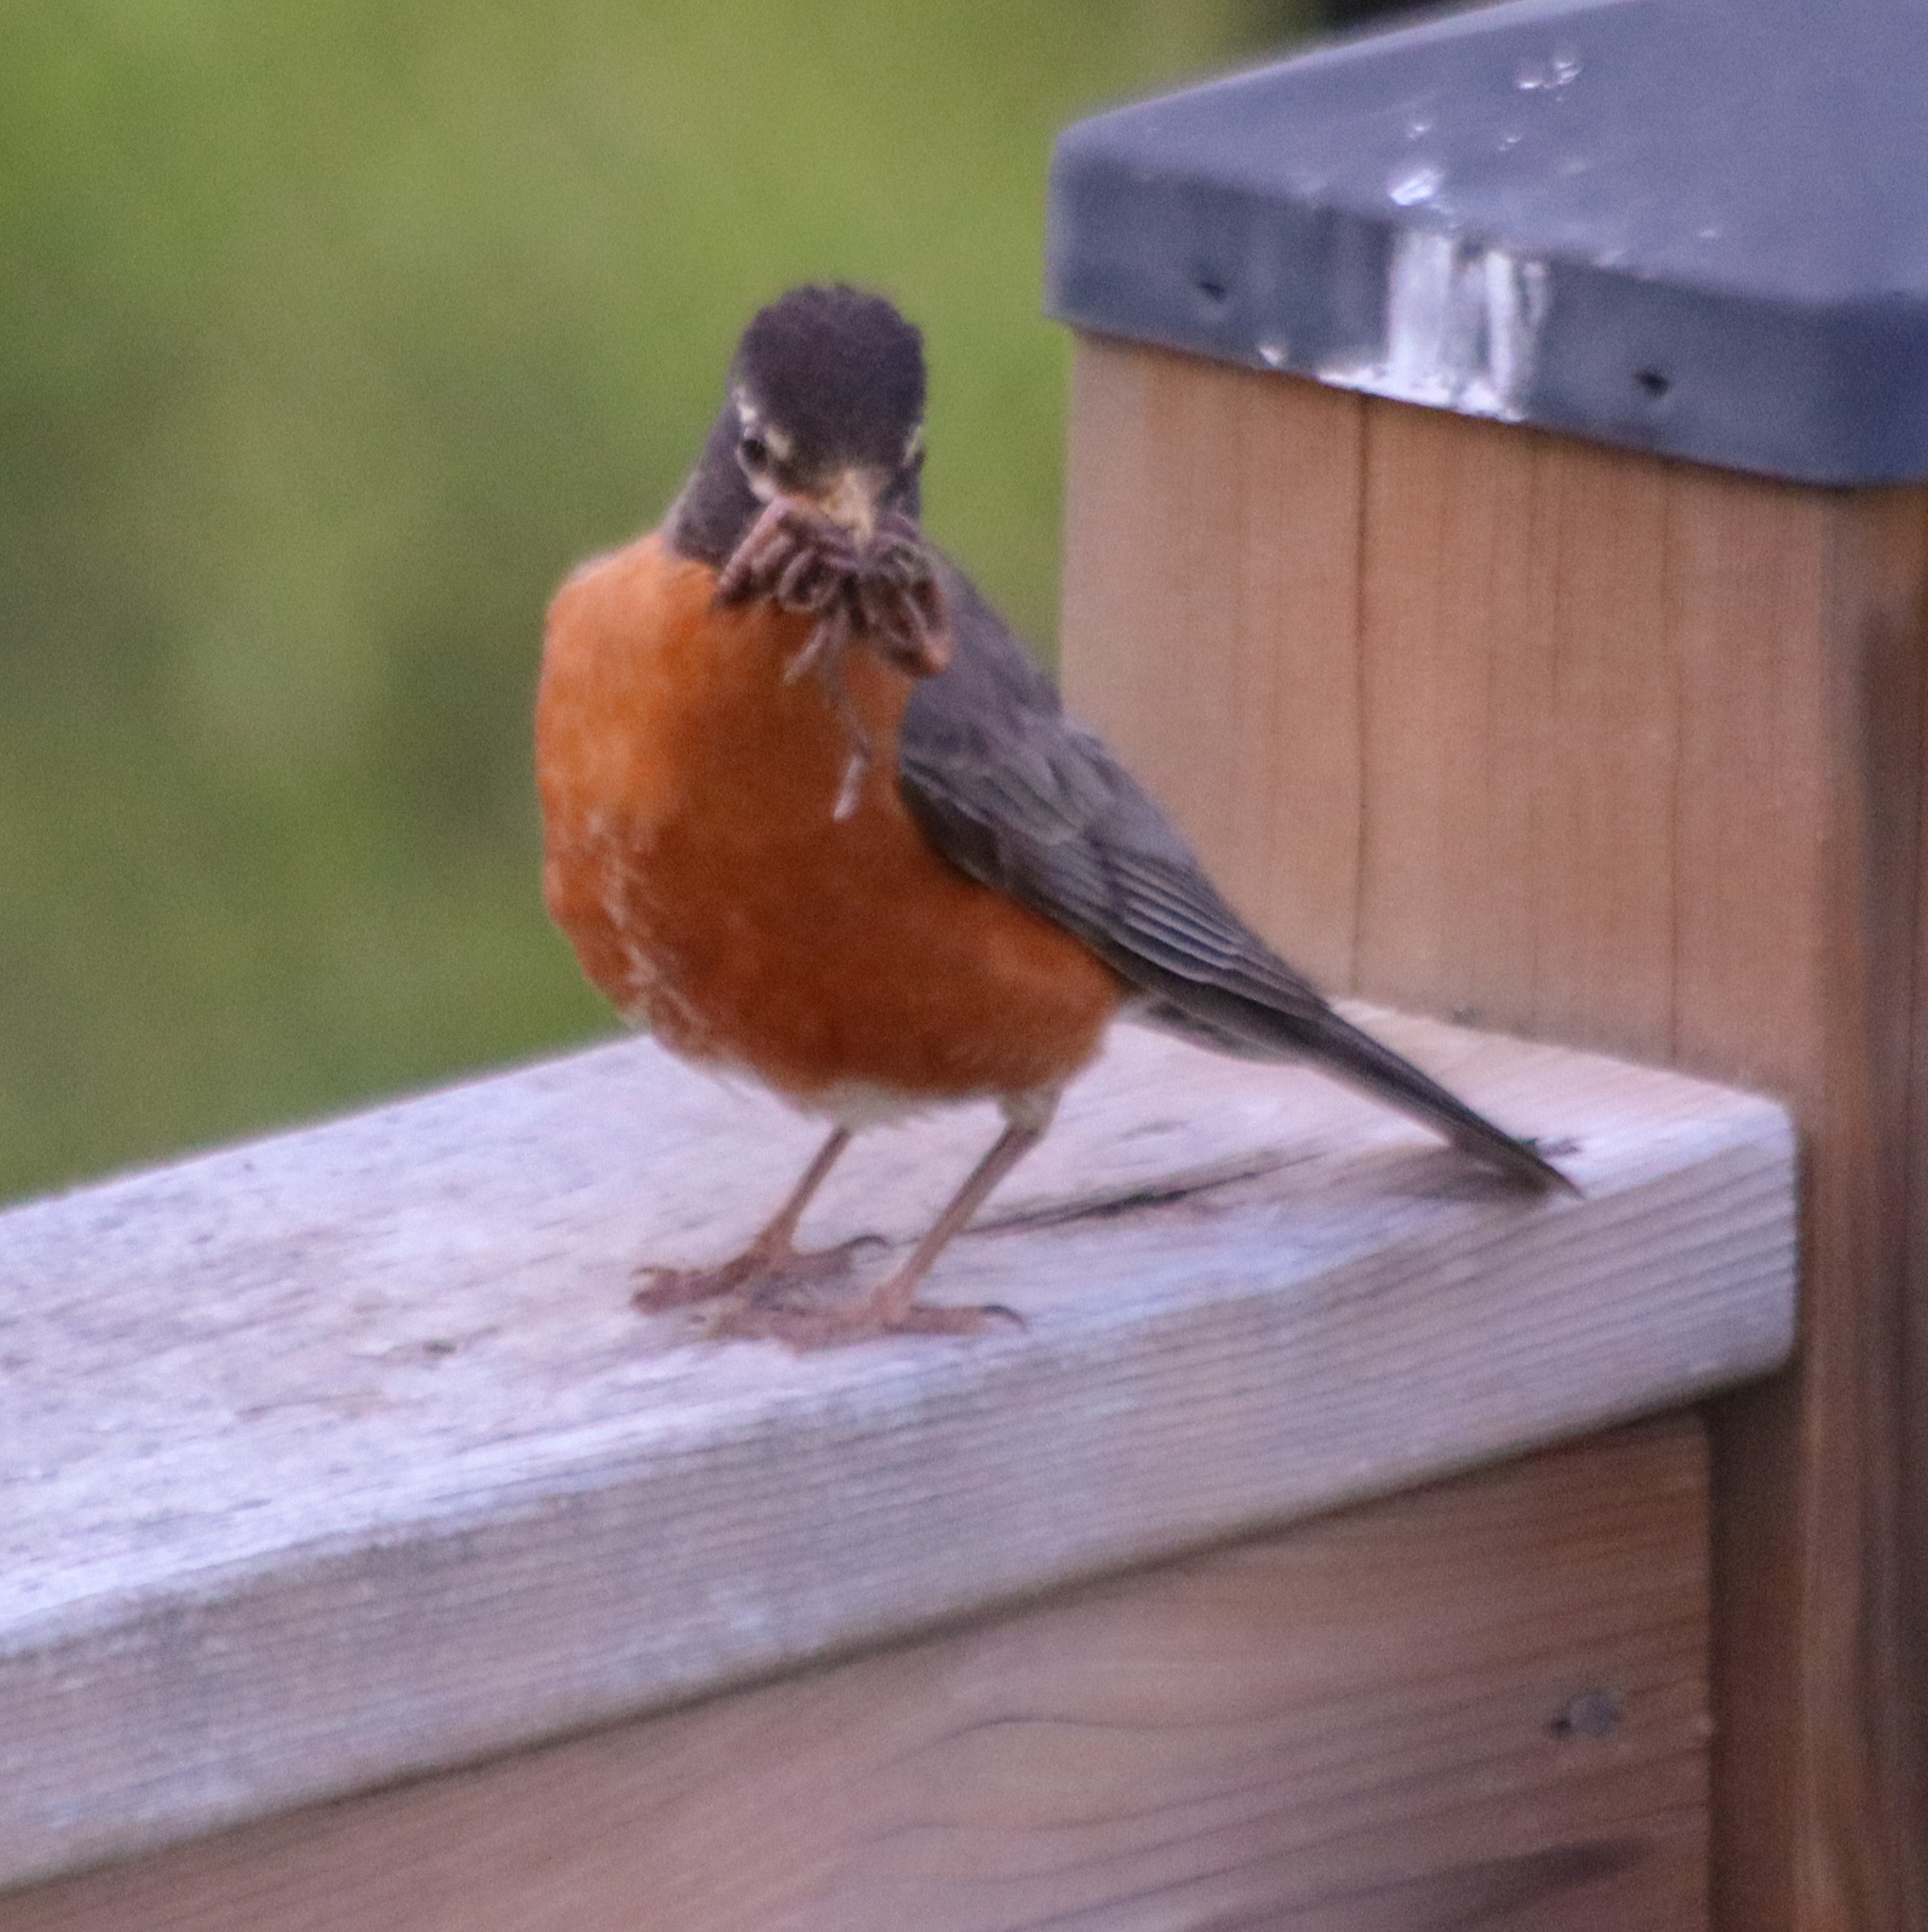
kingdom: Animalia
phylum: Chordata
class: Aves
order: Passeriformes
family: Turdidae
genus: Turdus
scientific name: Turdus migratorius
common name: American robin
